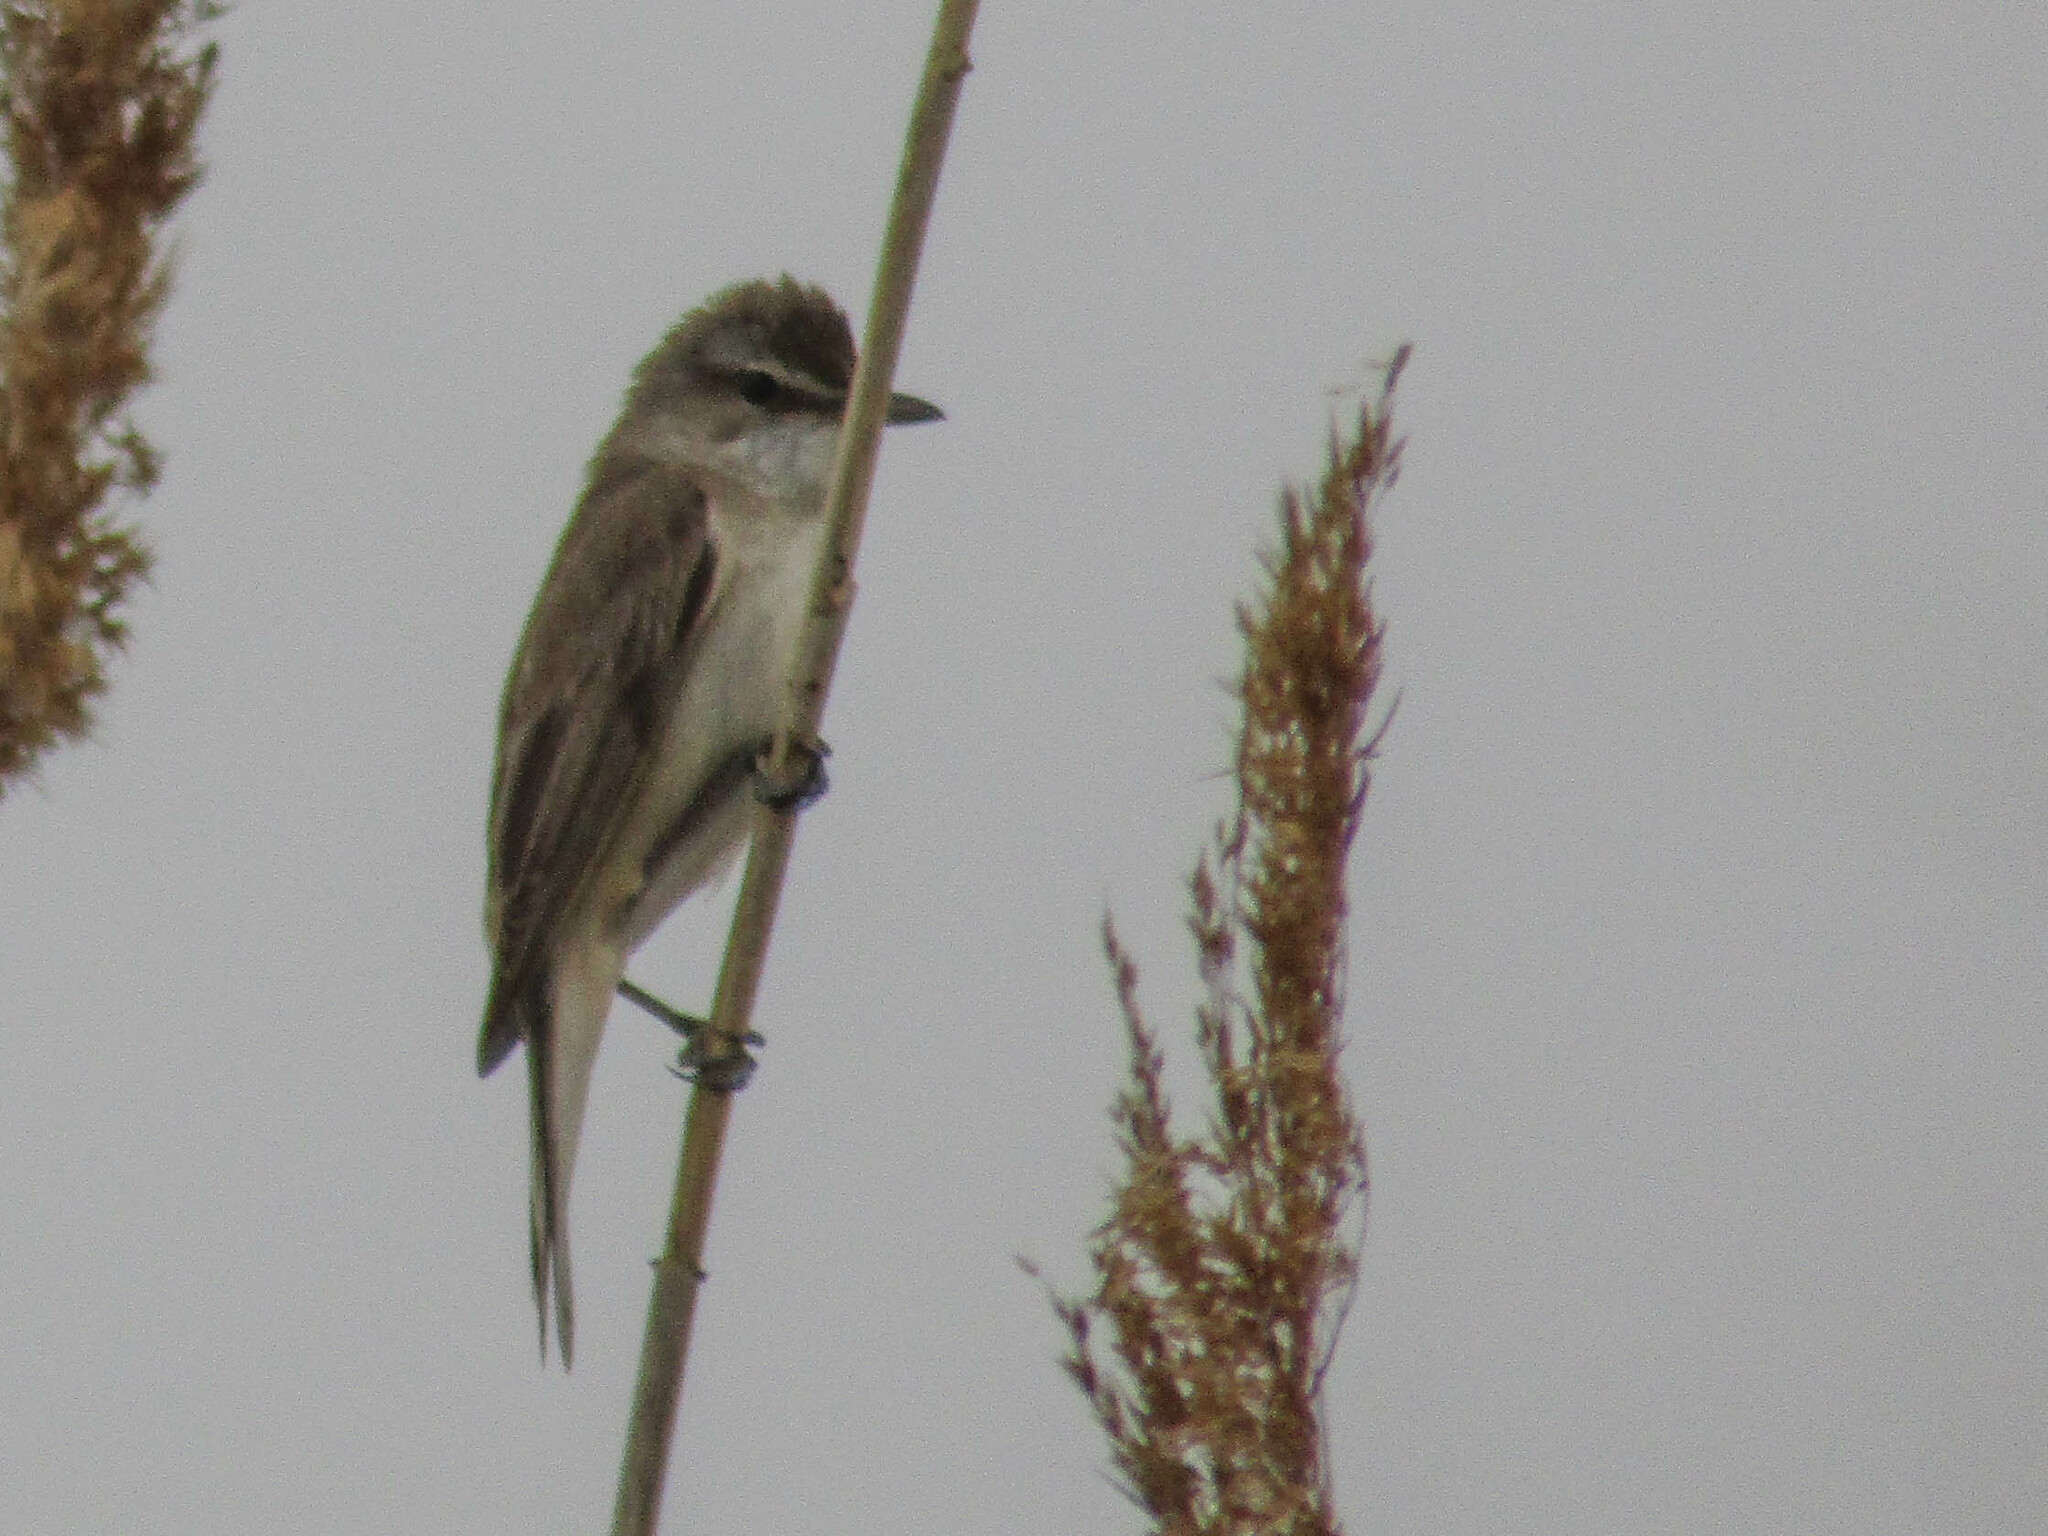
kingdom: Animalia
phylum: Chordata
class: Aves
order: Passeriformes
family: Acrocephalidae
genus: Acrocephalus
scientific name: Acrocephalus arundinaceus
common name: Great reed warbler
